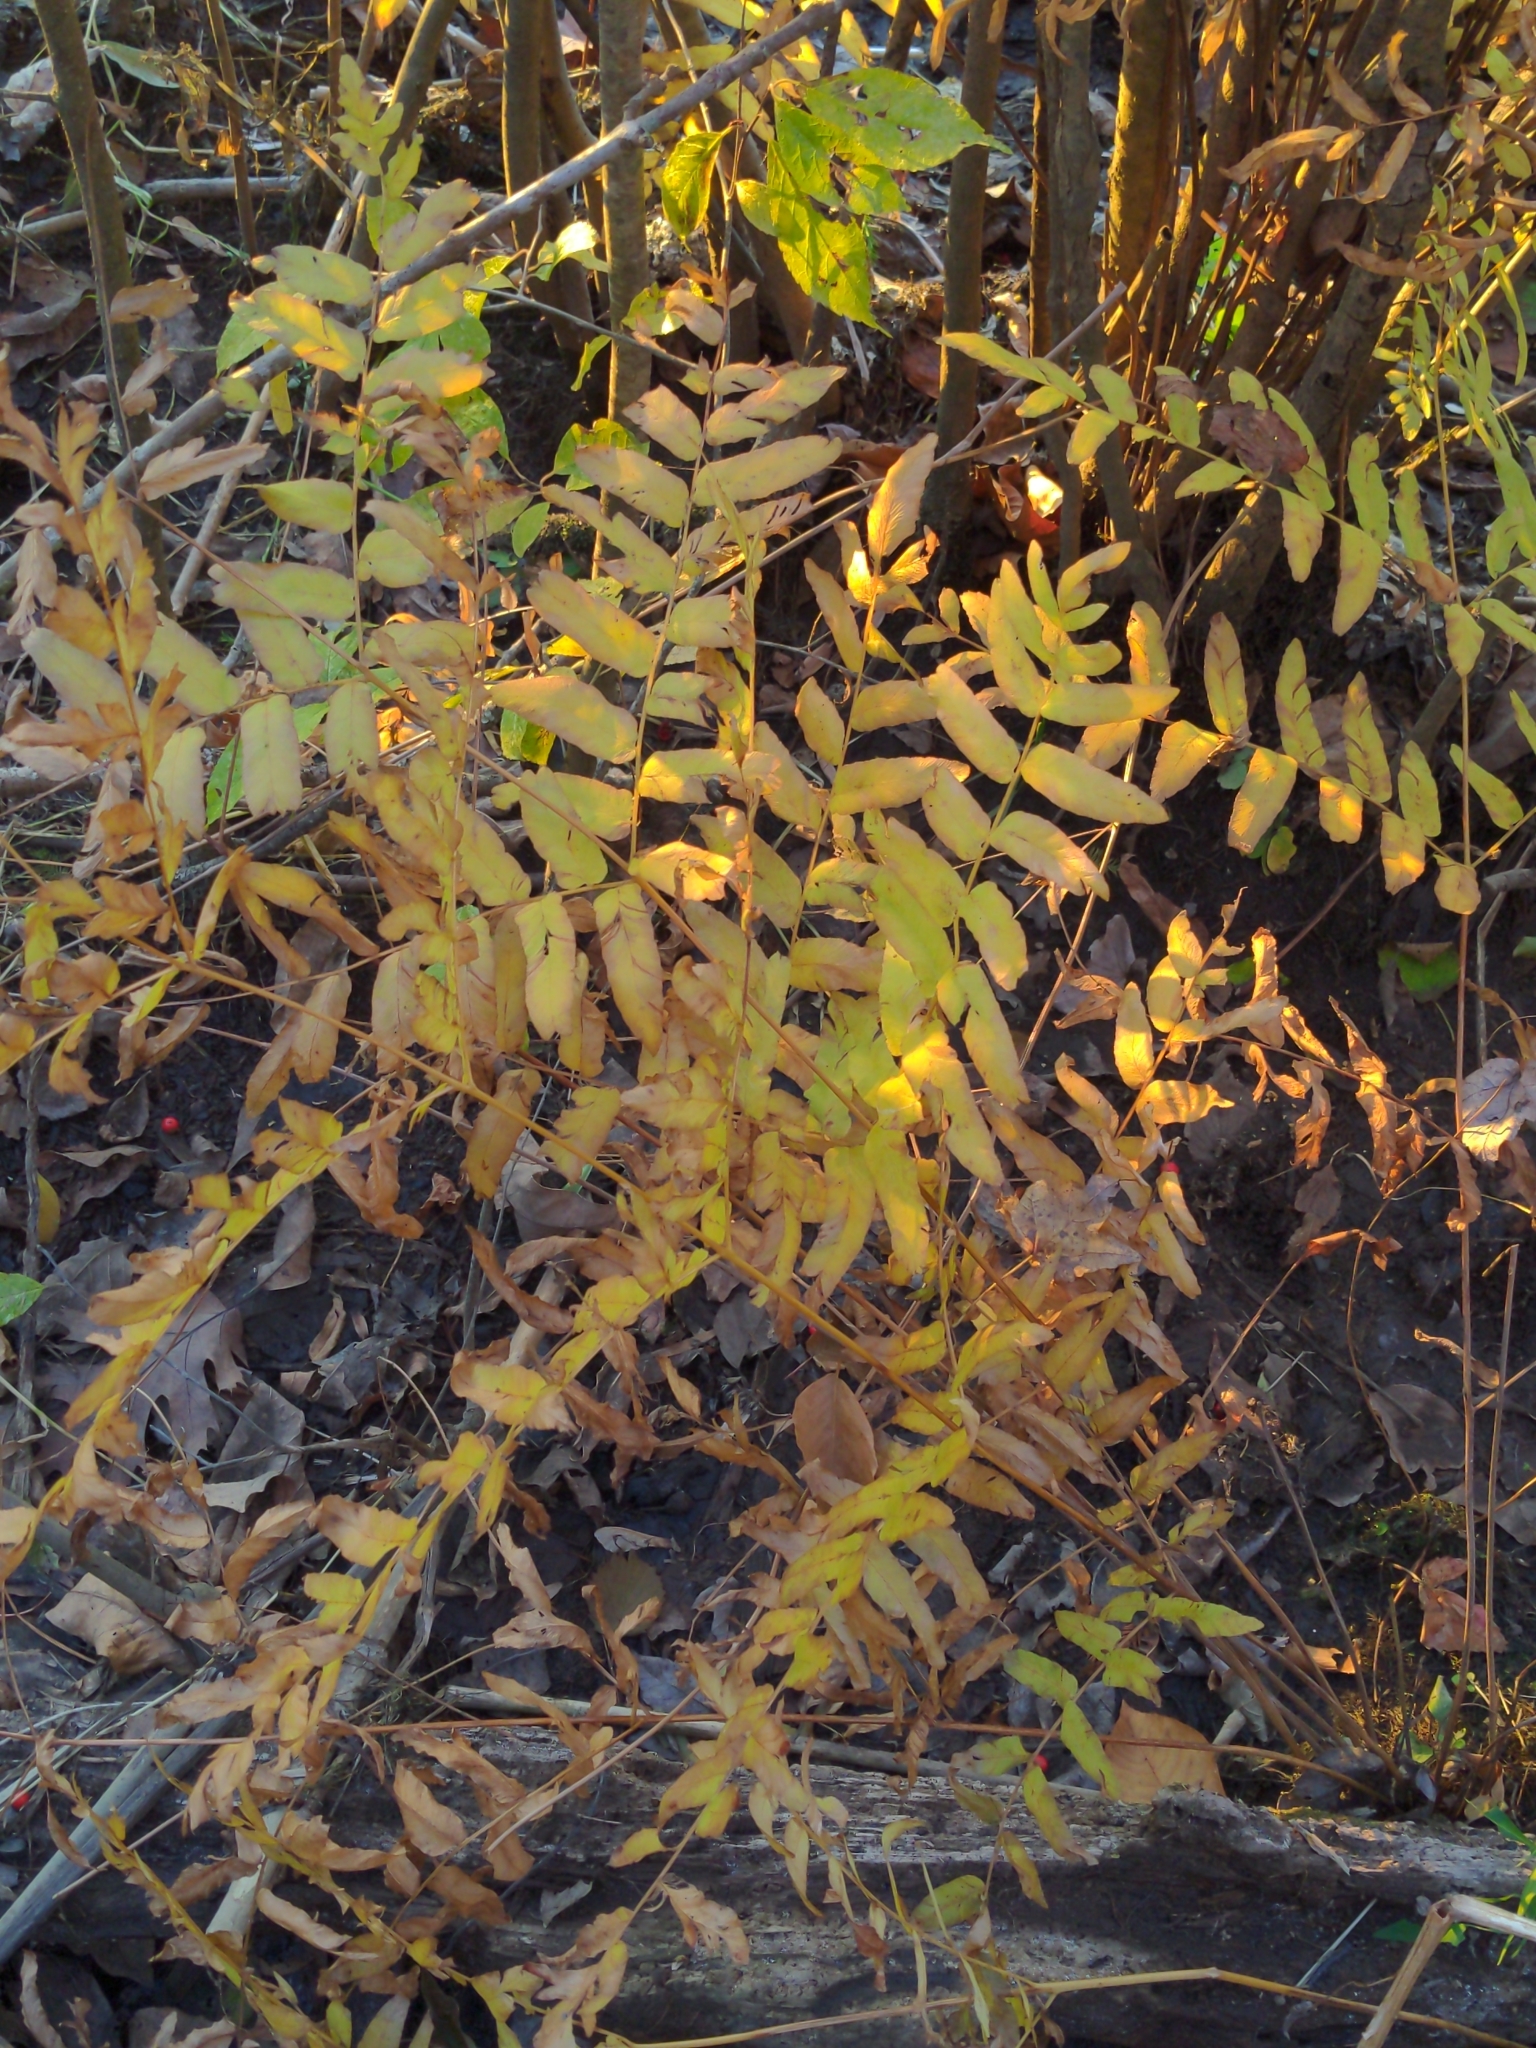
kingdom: Plantae
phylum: Tracheophyta
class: Polypodiopsida
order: Osmundales
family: Osmundaceae
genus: Osmunda
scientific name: Osmunda spectabilis
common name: American royal fern
